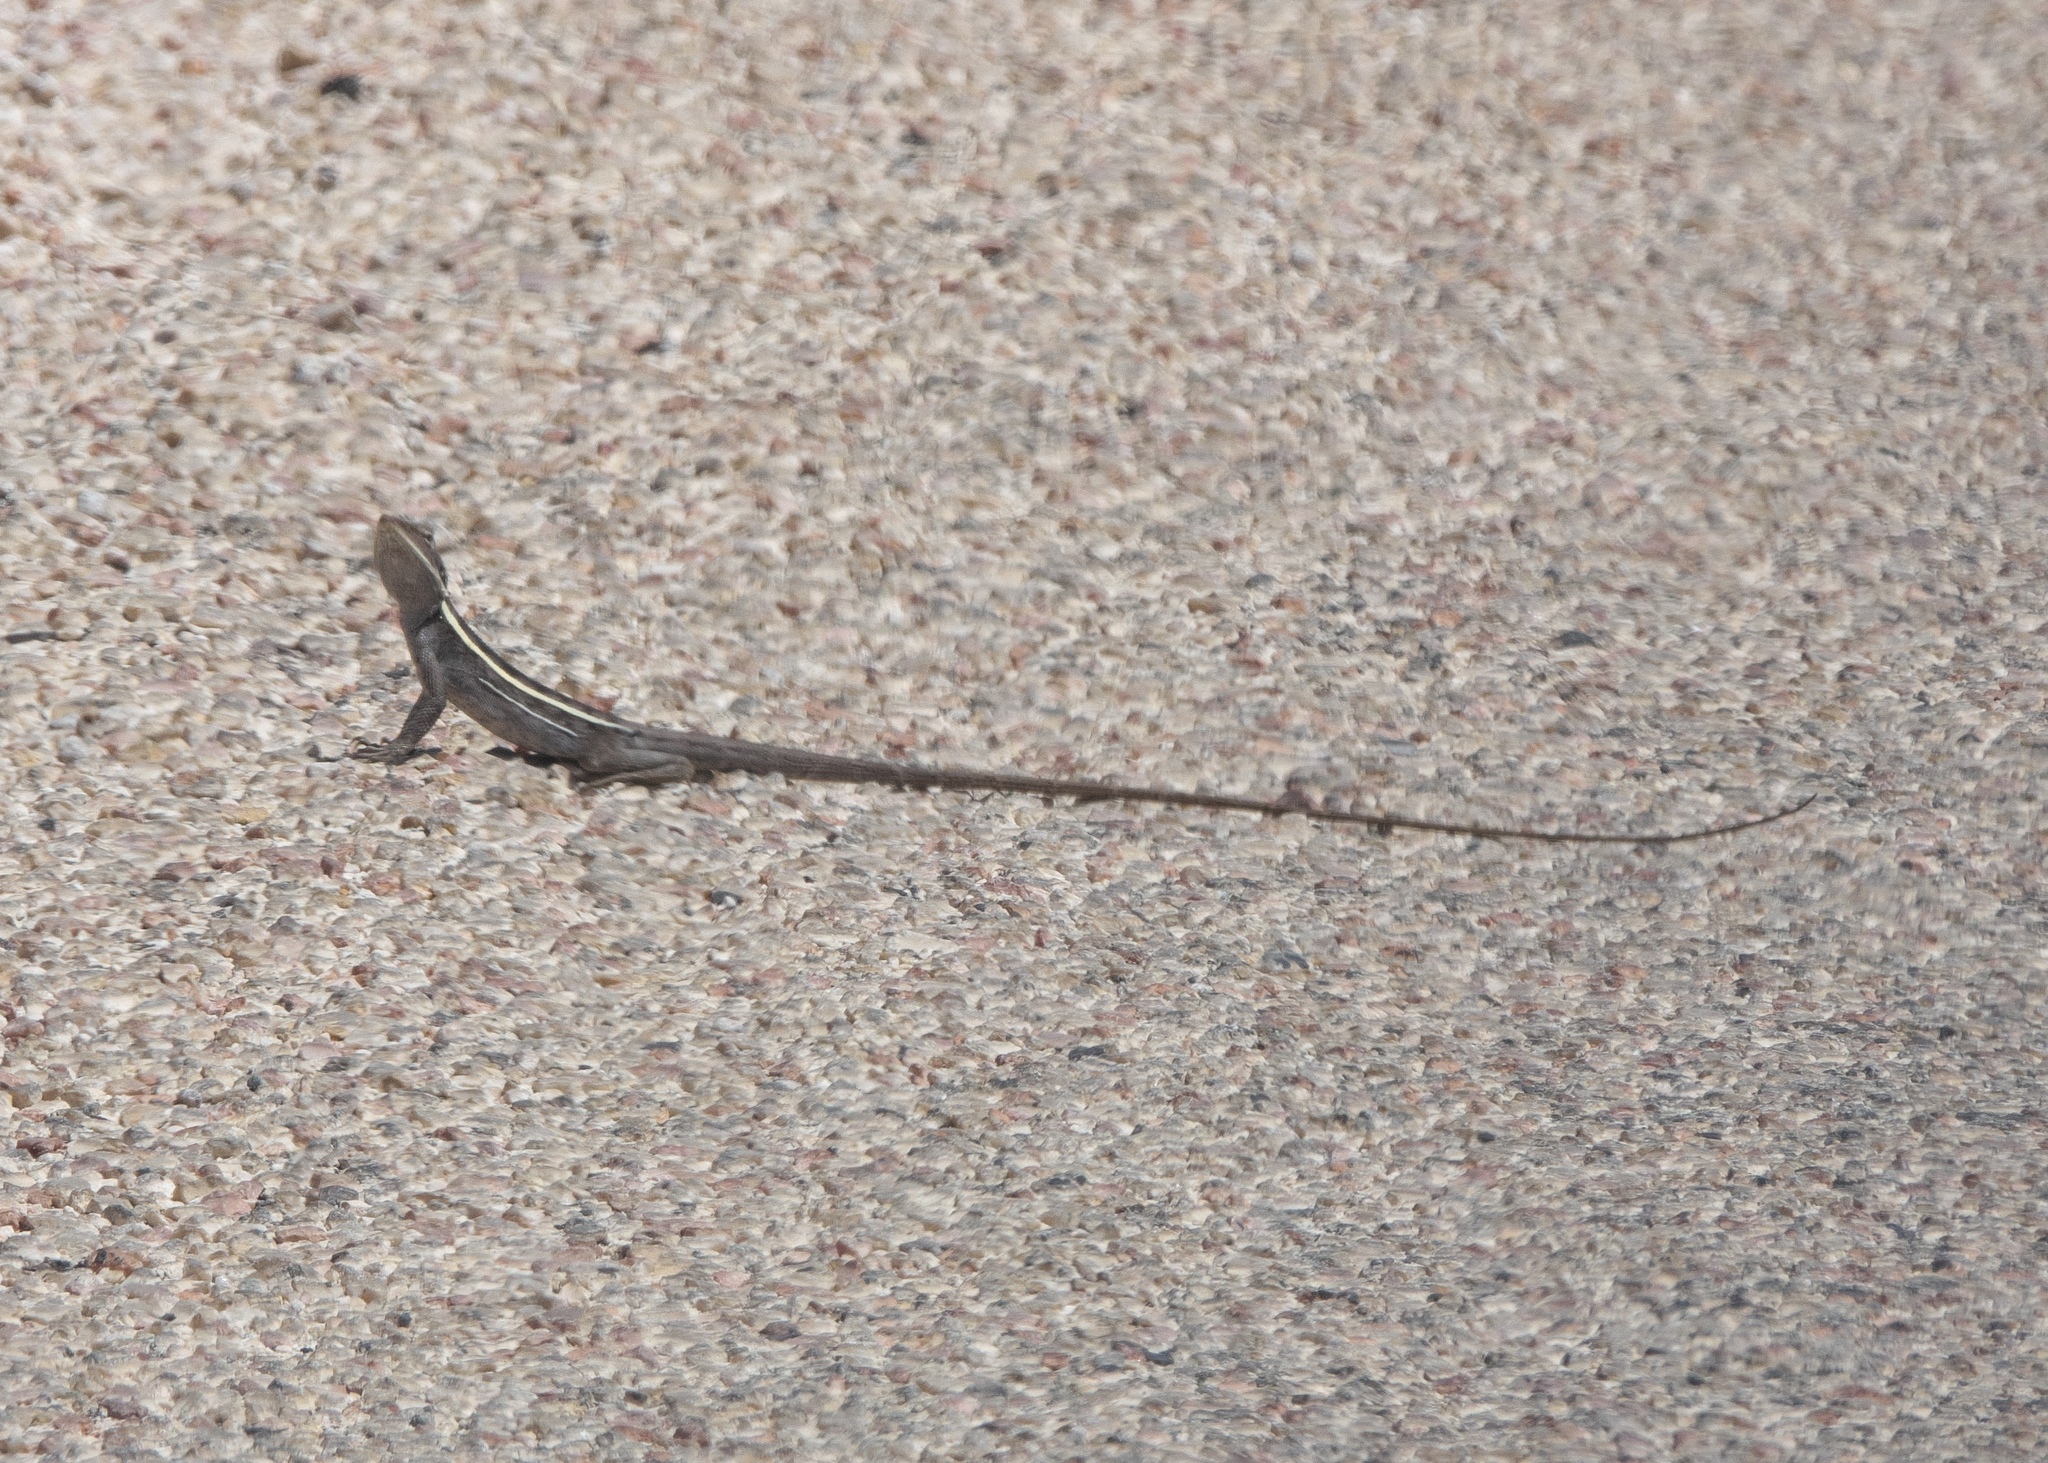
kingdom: Animalia
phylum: Chordata
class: Squamata
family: Agamidae
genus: Gowidon
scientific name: Gowidon longirostris
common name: Long-nosed water dragon
